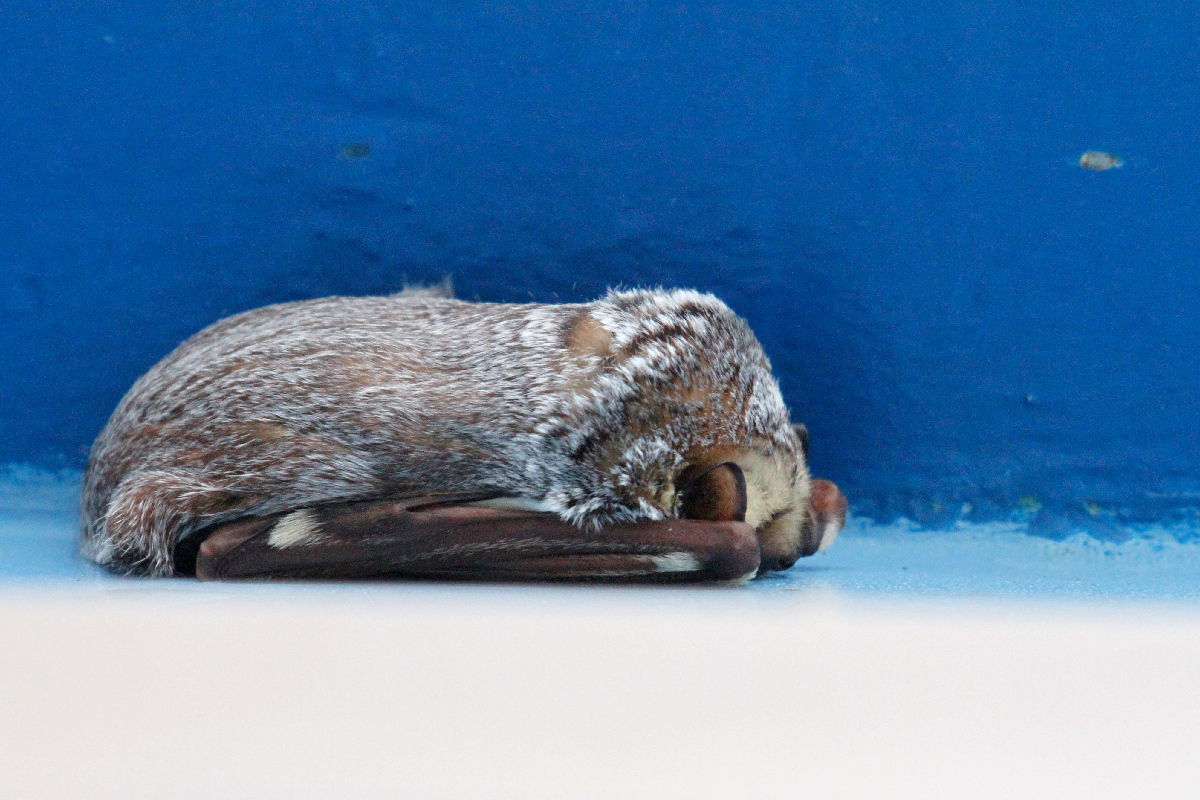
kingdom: Animalia
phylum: Chordata
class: Mammalia
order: Chiroptera
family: Vespertilionidae
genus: Aeorestes
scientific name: Aeorestes cinereus
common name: North american hoary bat
